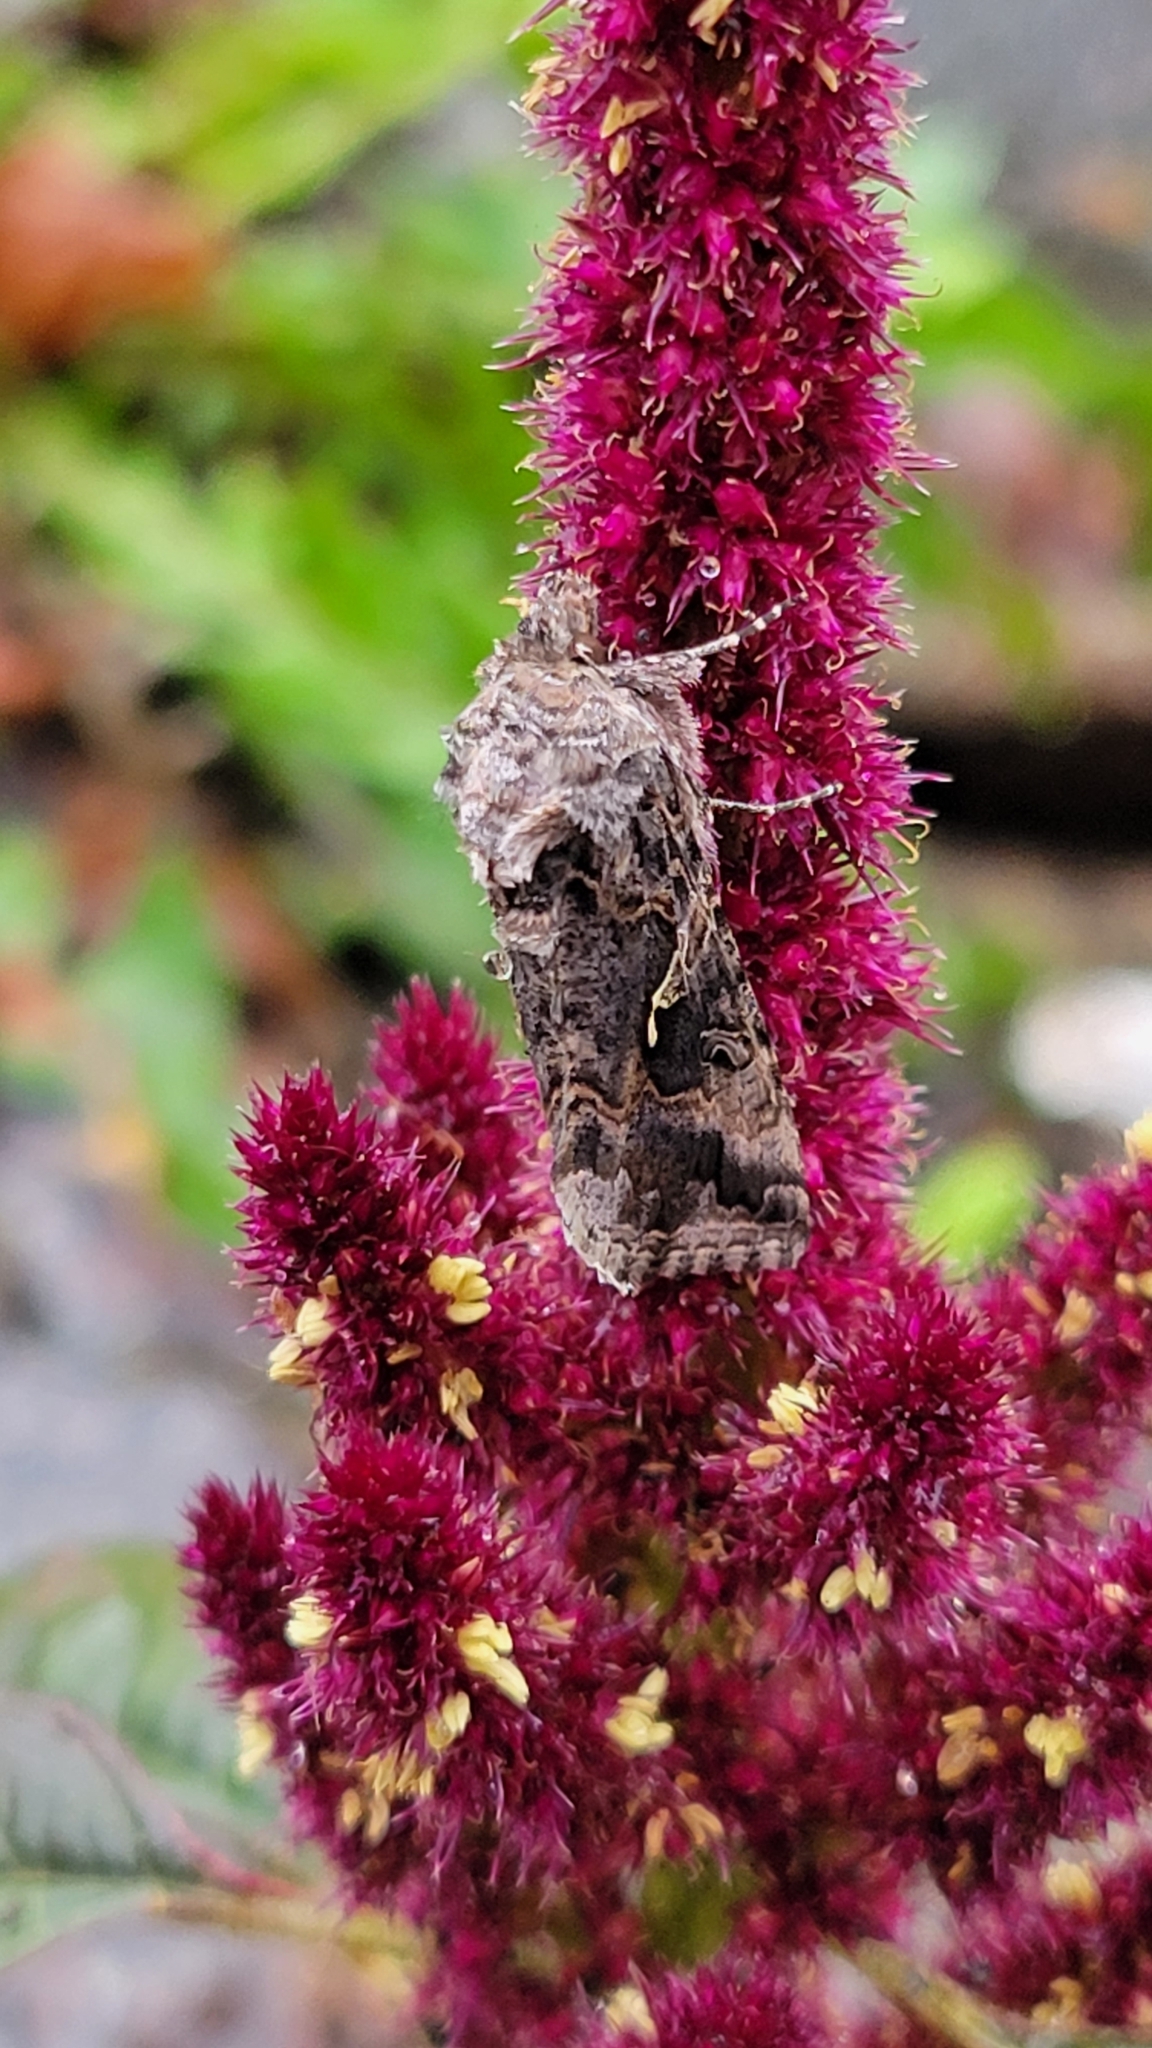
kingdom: Animalia
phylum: Arthropoda
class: Insecta
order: Lepidoptera
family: Noctuidae
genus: Autographa
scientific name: Autographa californica
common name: Alfalfa looper
